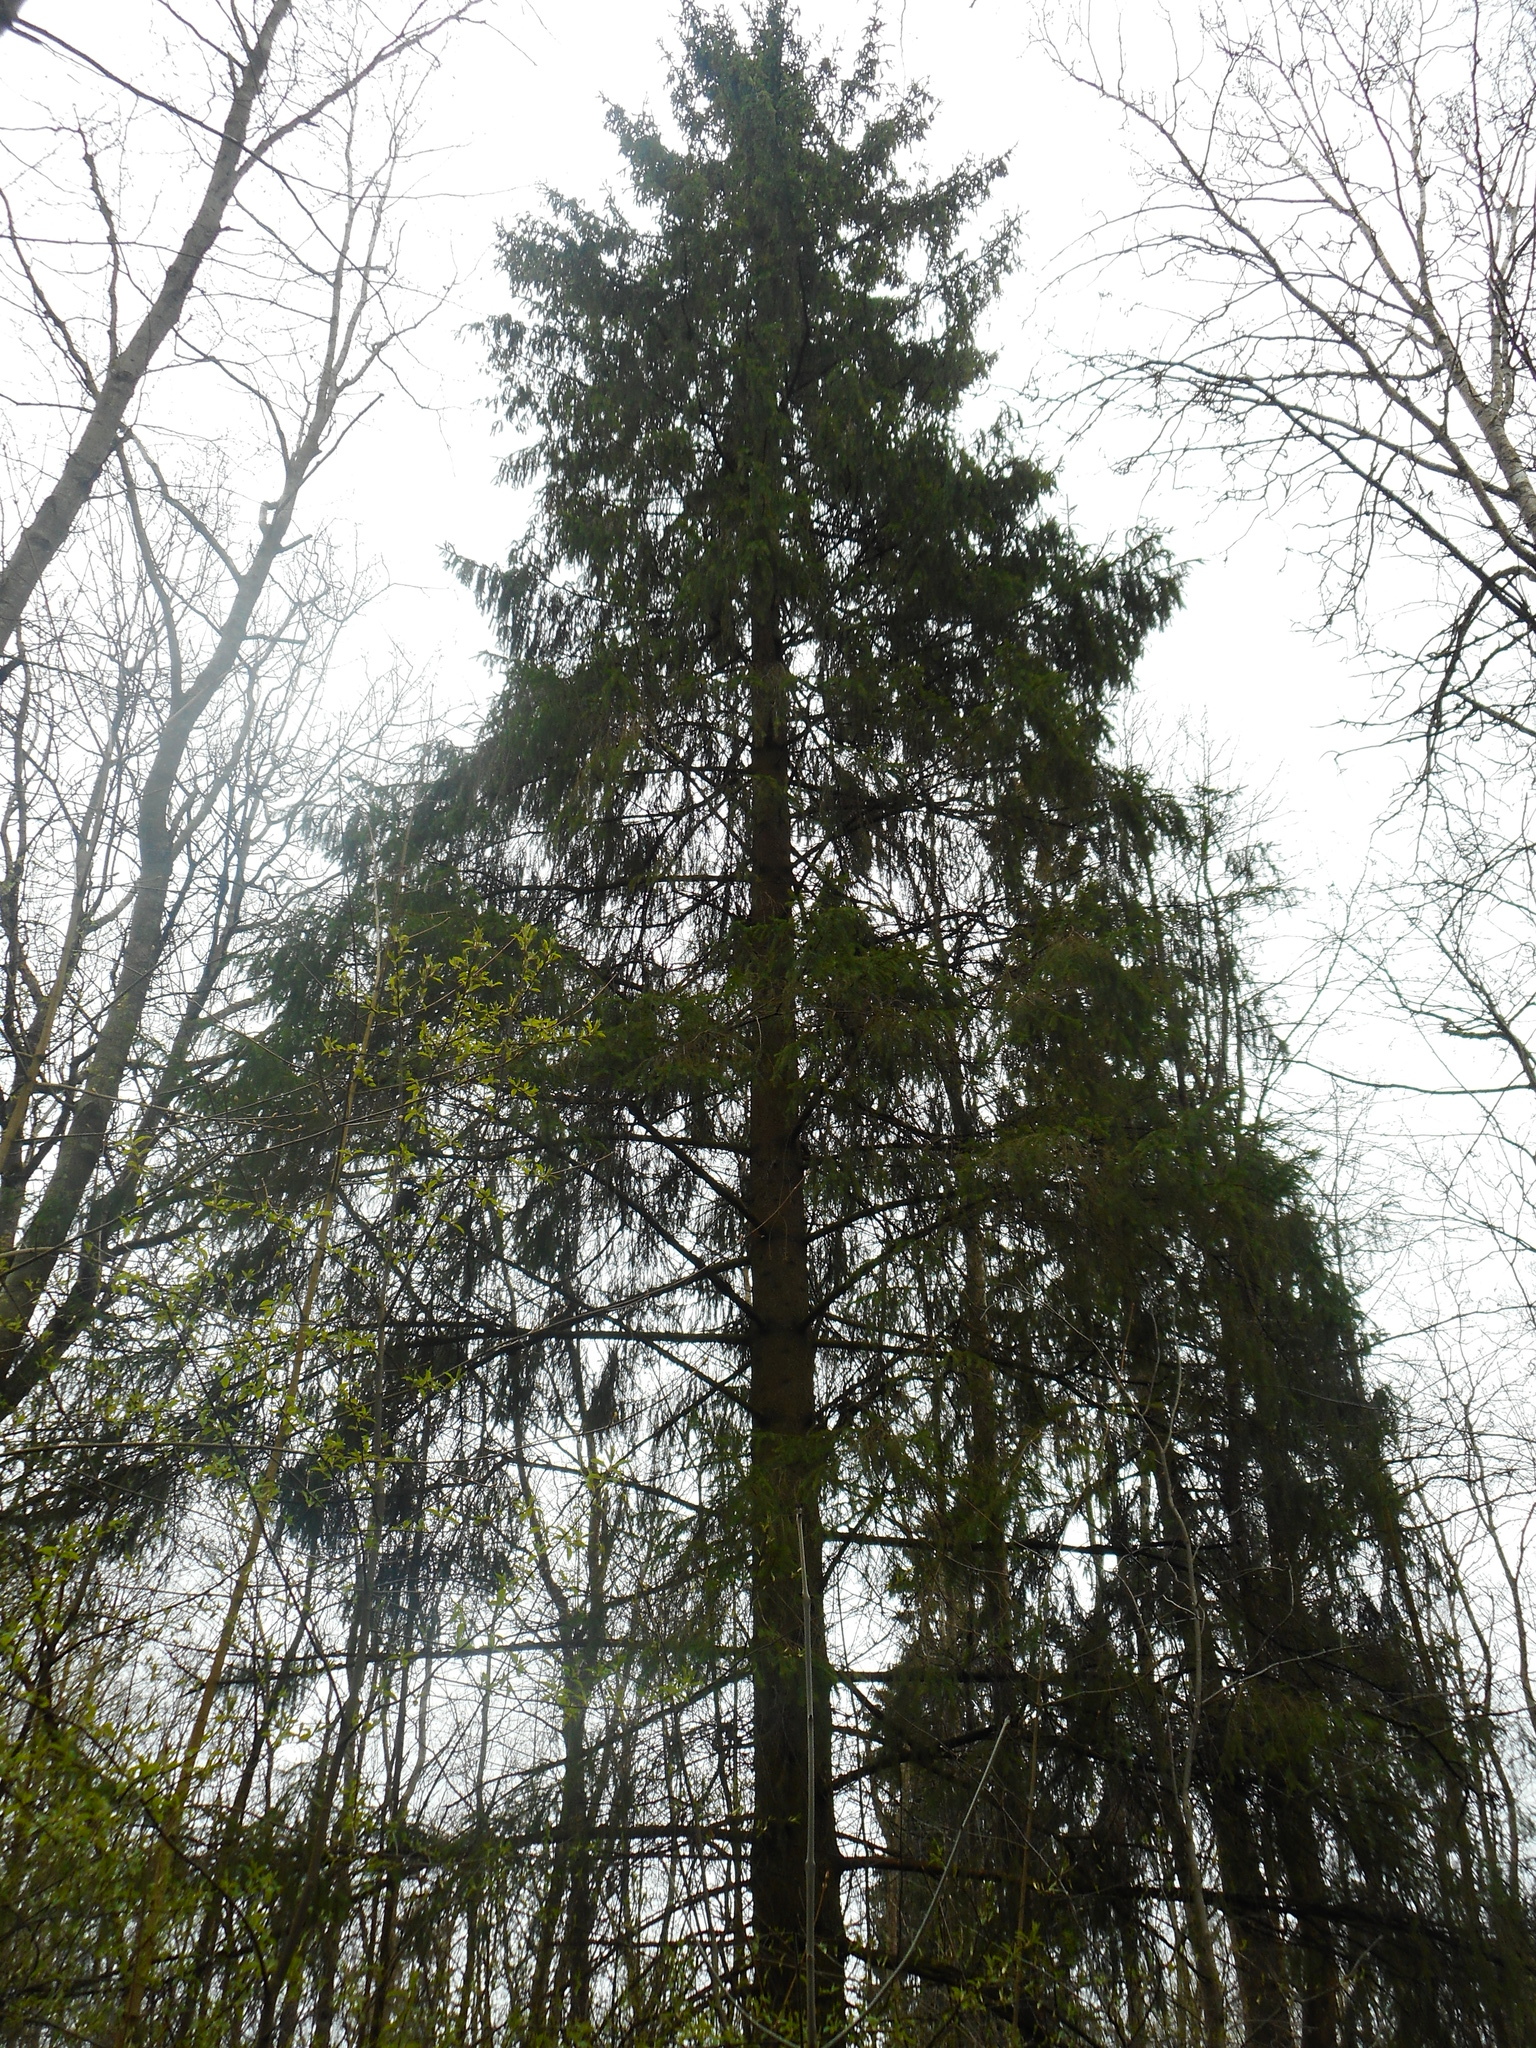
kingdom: Plantae
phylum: Tracheophyta
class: Pinopsida
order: Pinales
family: Pinaceae
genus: Picea
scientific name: Picea abies
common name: Norway spruce
